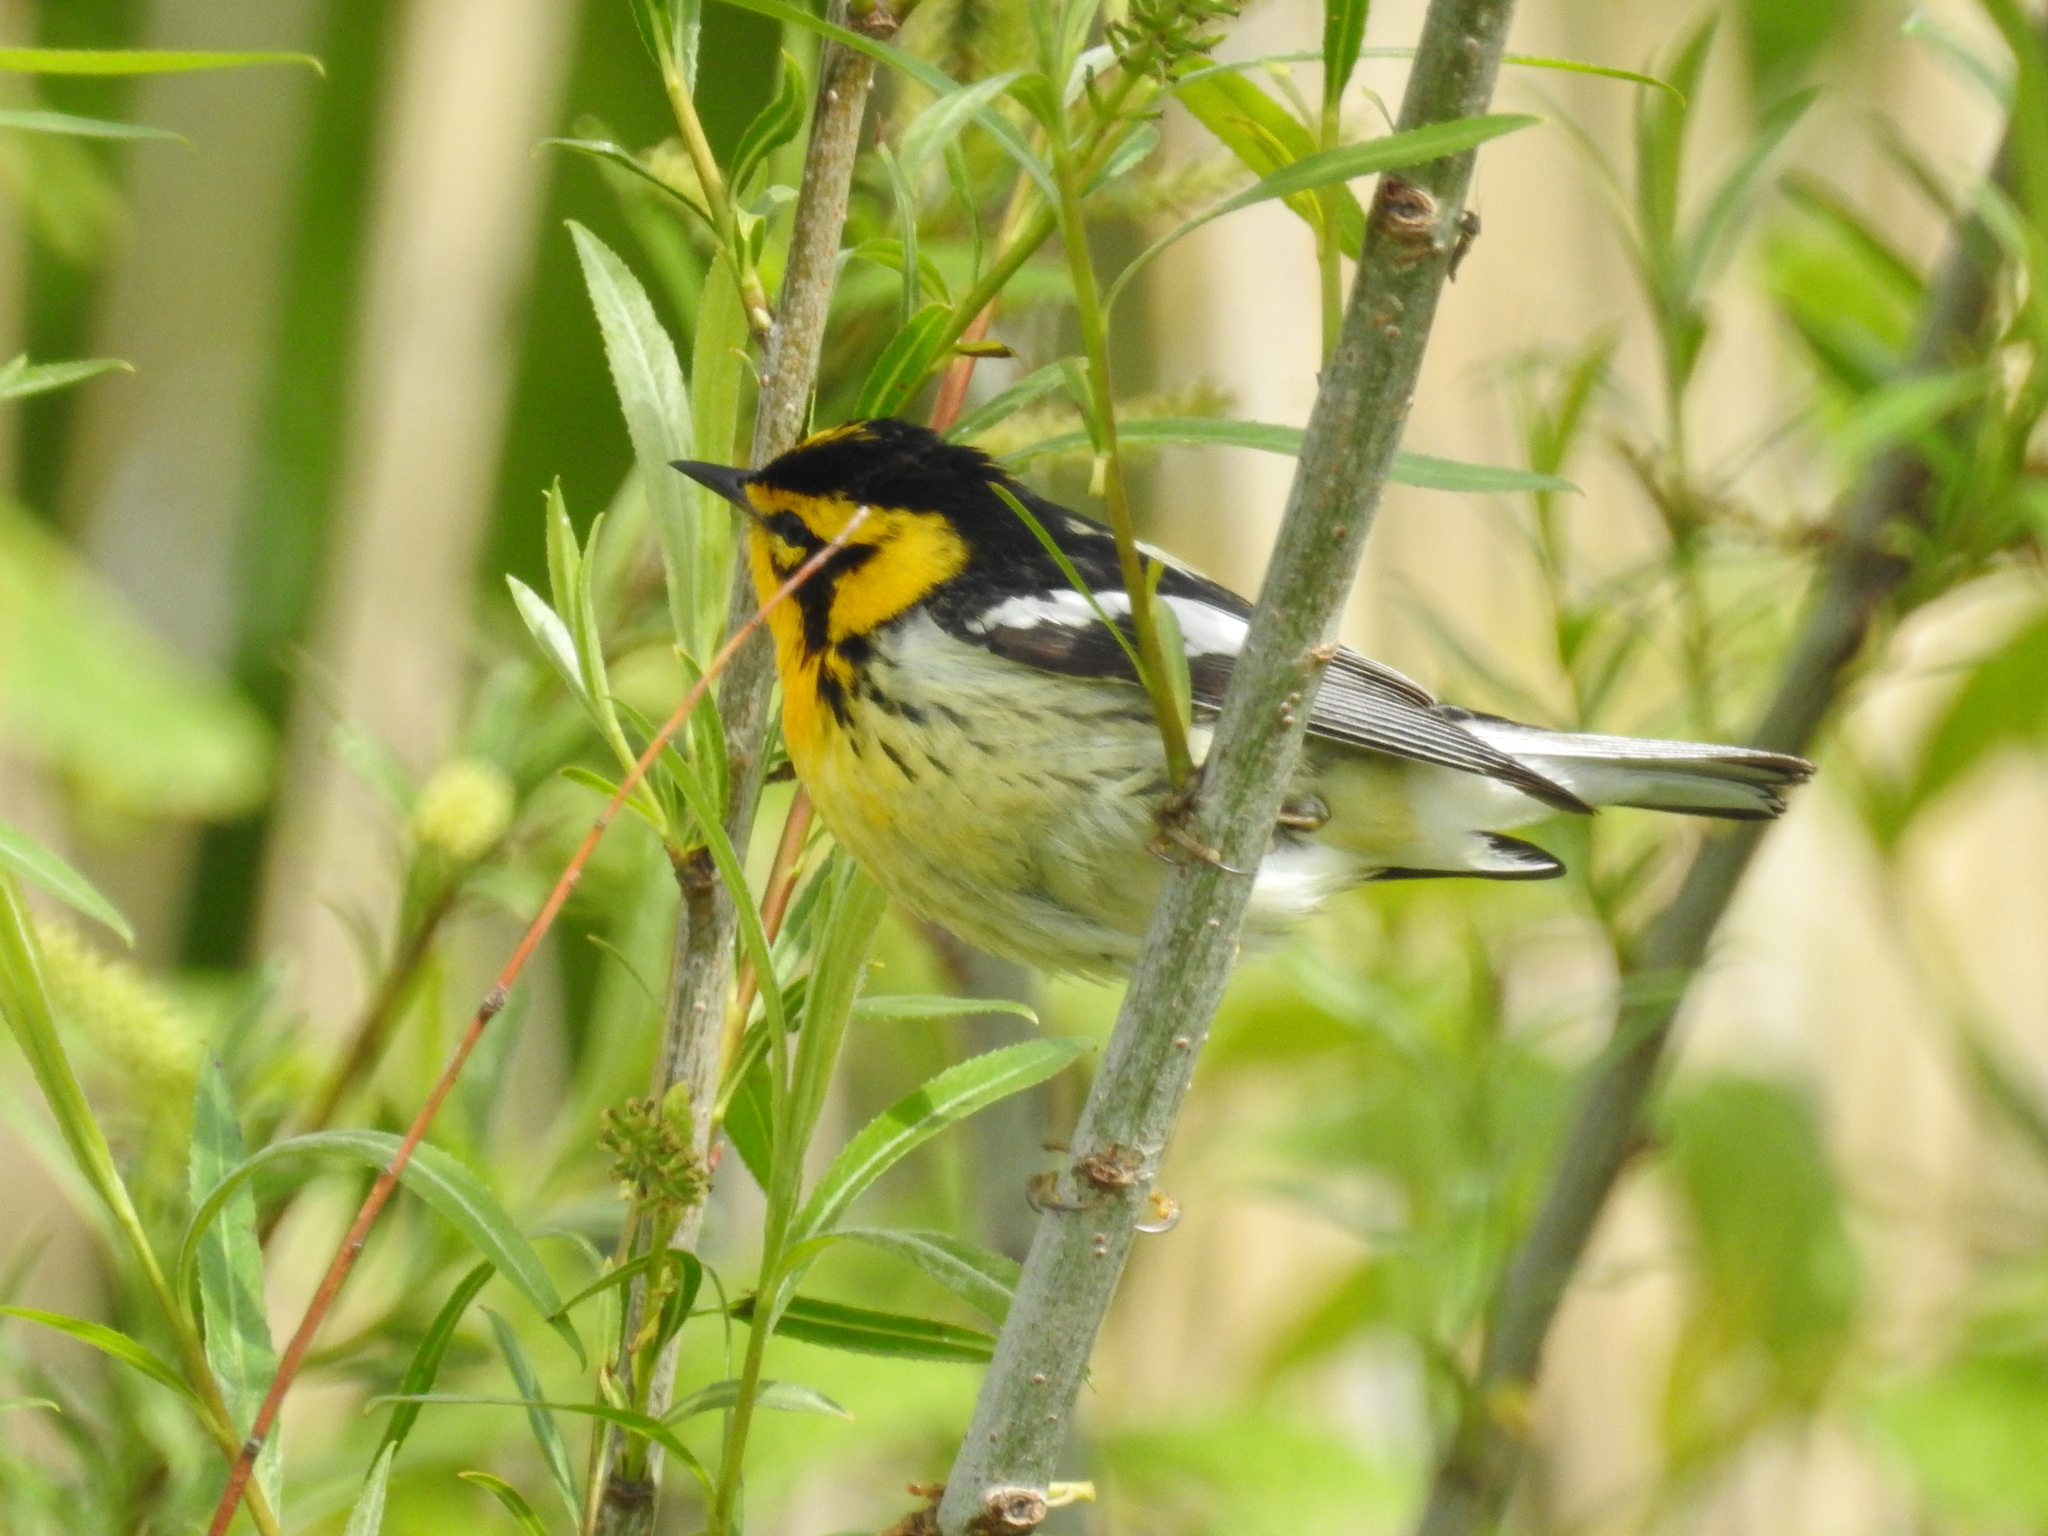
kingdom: Animalia
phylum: Chordata
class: Aves
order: Passeriformes
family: Parulidae
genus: Setophaga
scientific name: Setophaga fusca
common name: Blackburnian warbler
